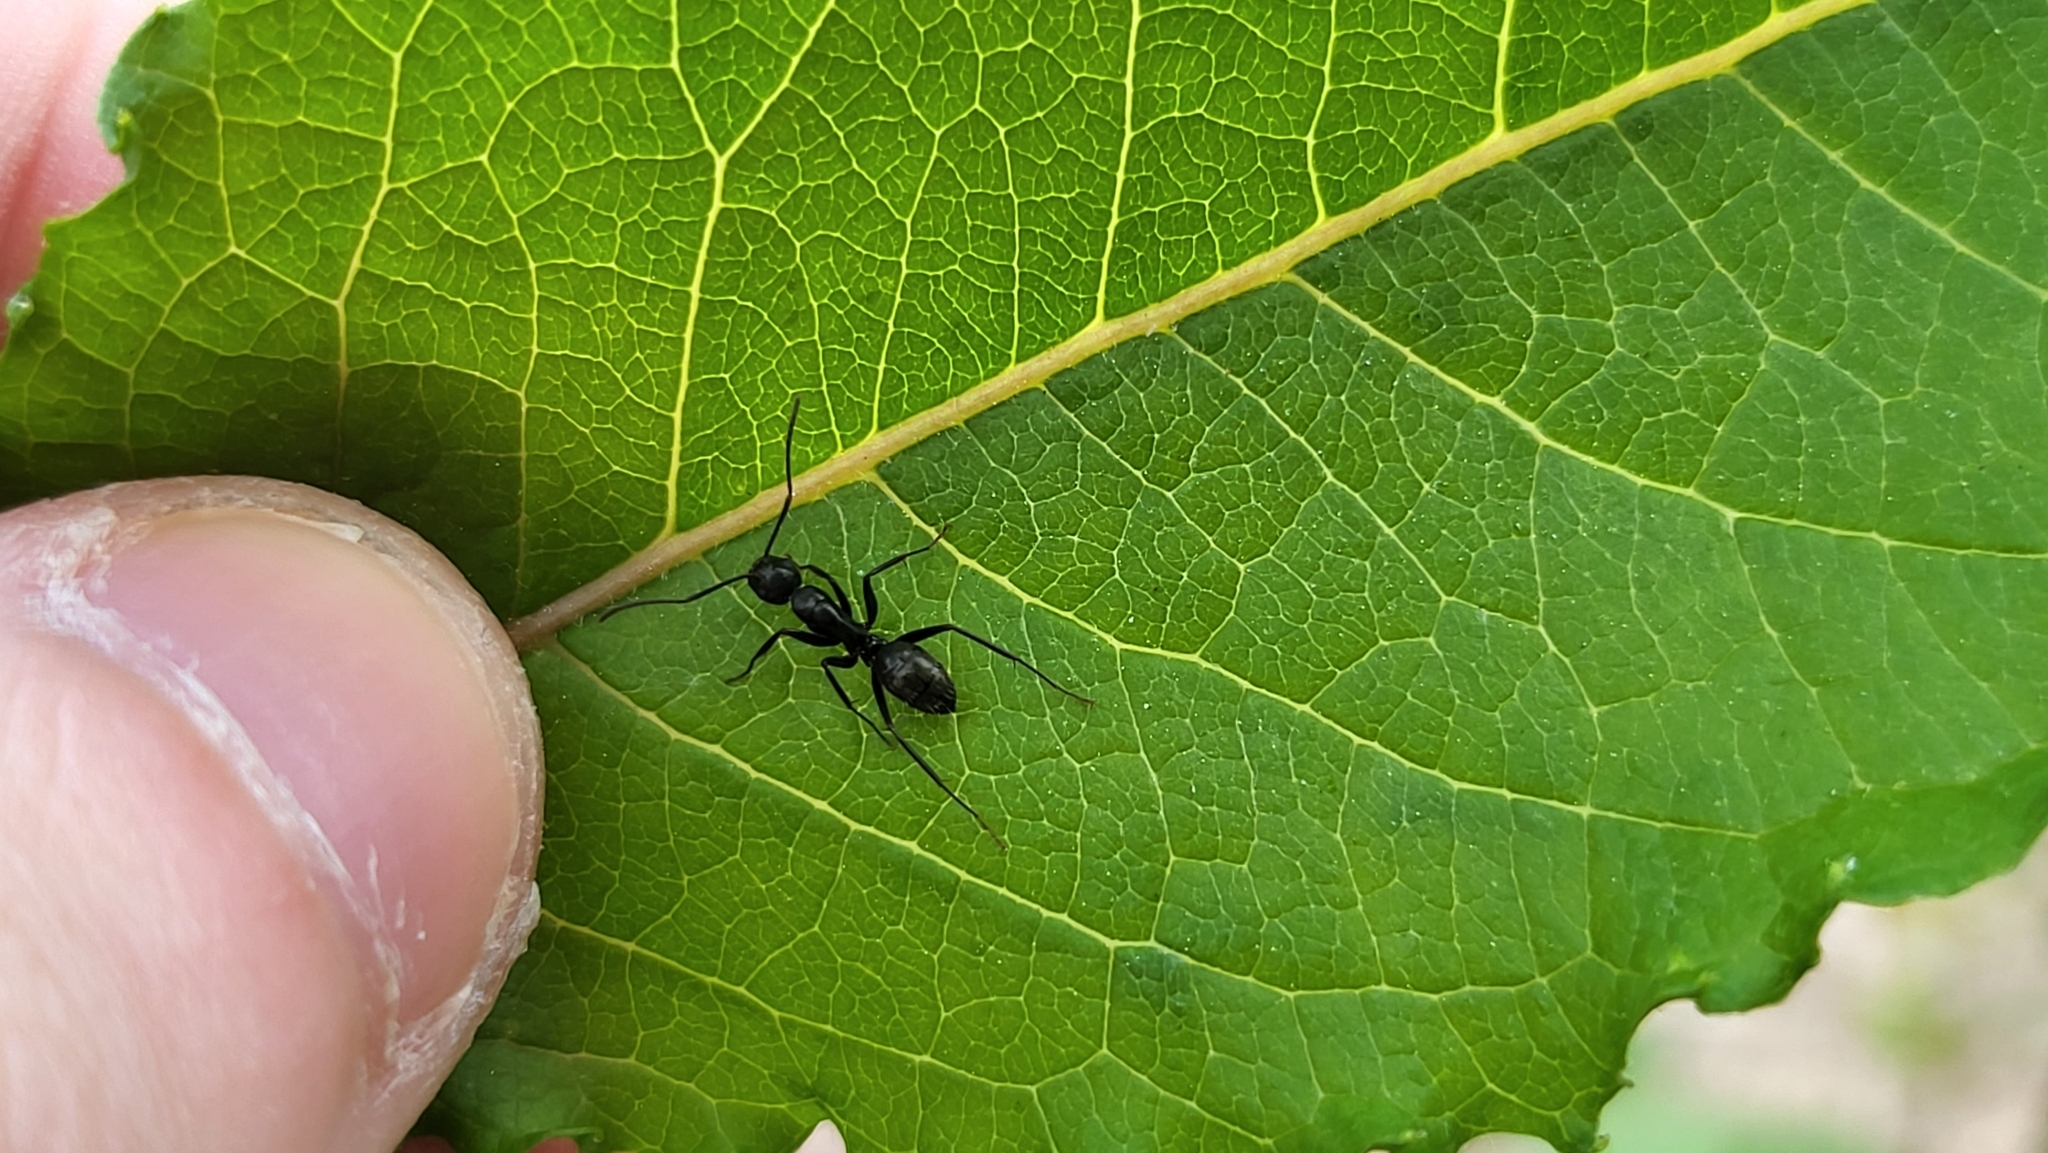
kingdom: Animalia
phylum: Arthropoda
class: Insecta
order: Hymenoptera
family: Formicidae
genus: Camponotus
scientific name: Camponotus pennsylvanicus
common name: Black carpenter ant
